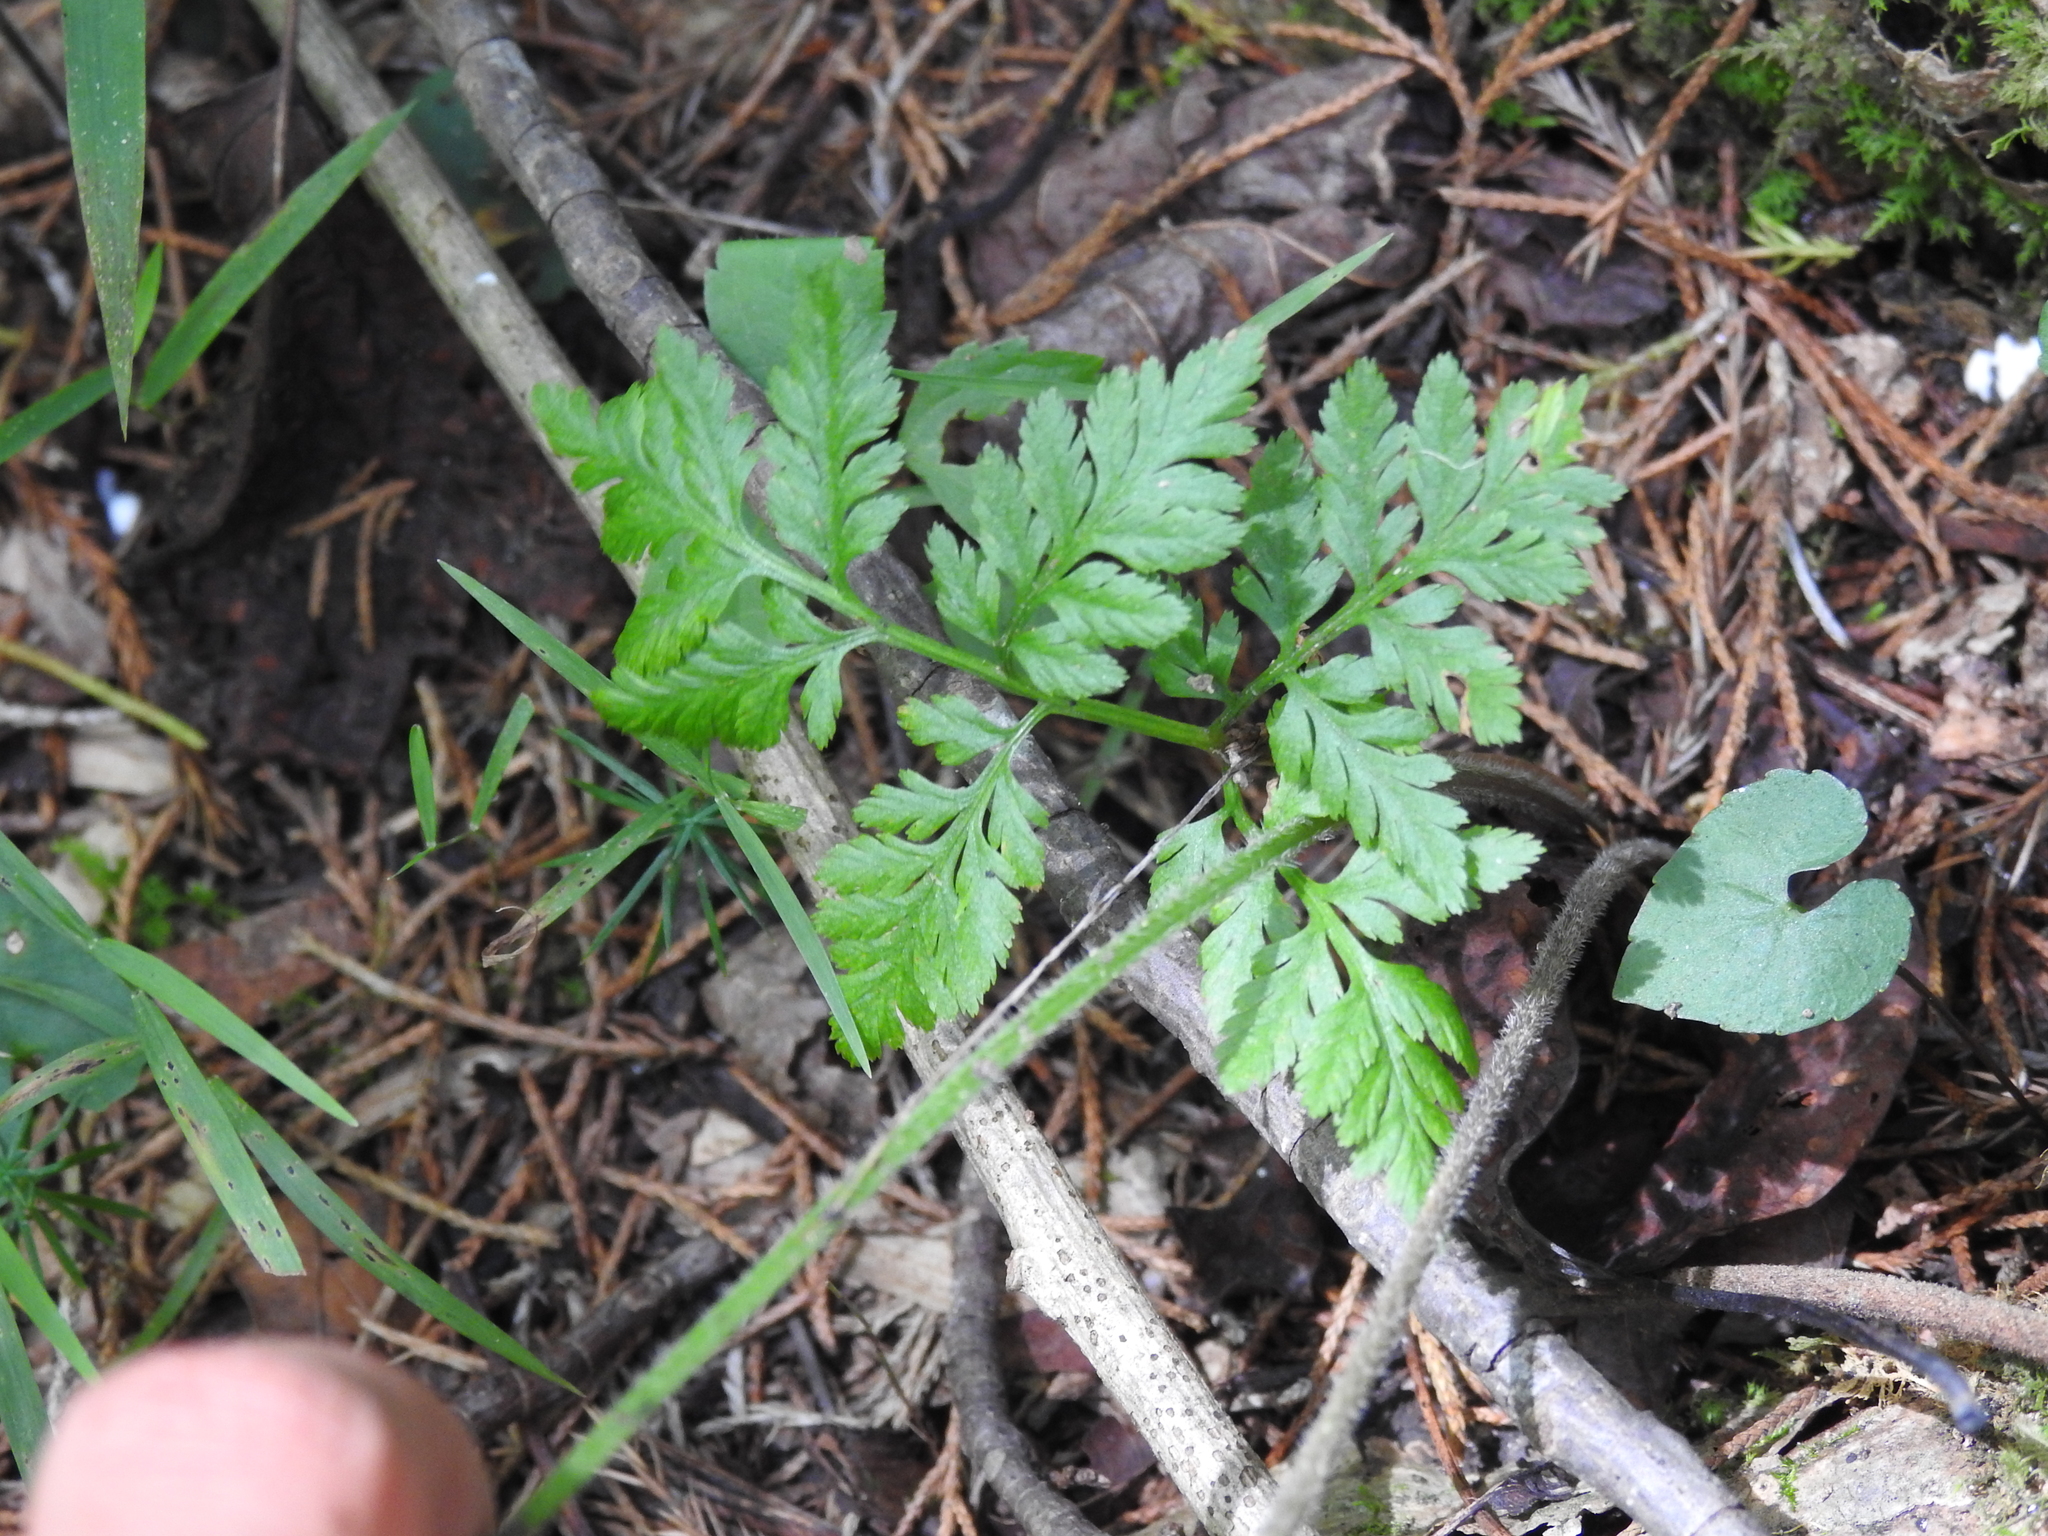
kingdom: Plantae
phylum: Tracheophyta
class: Polypodiopsida
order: Ophioglossales
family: Ophioglossaceae
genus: Botrypus
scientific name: Botrypus virginianus
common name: Common grapefern
